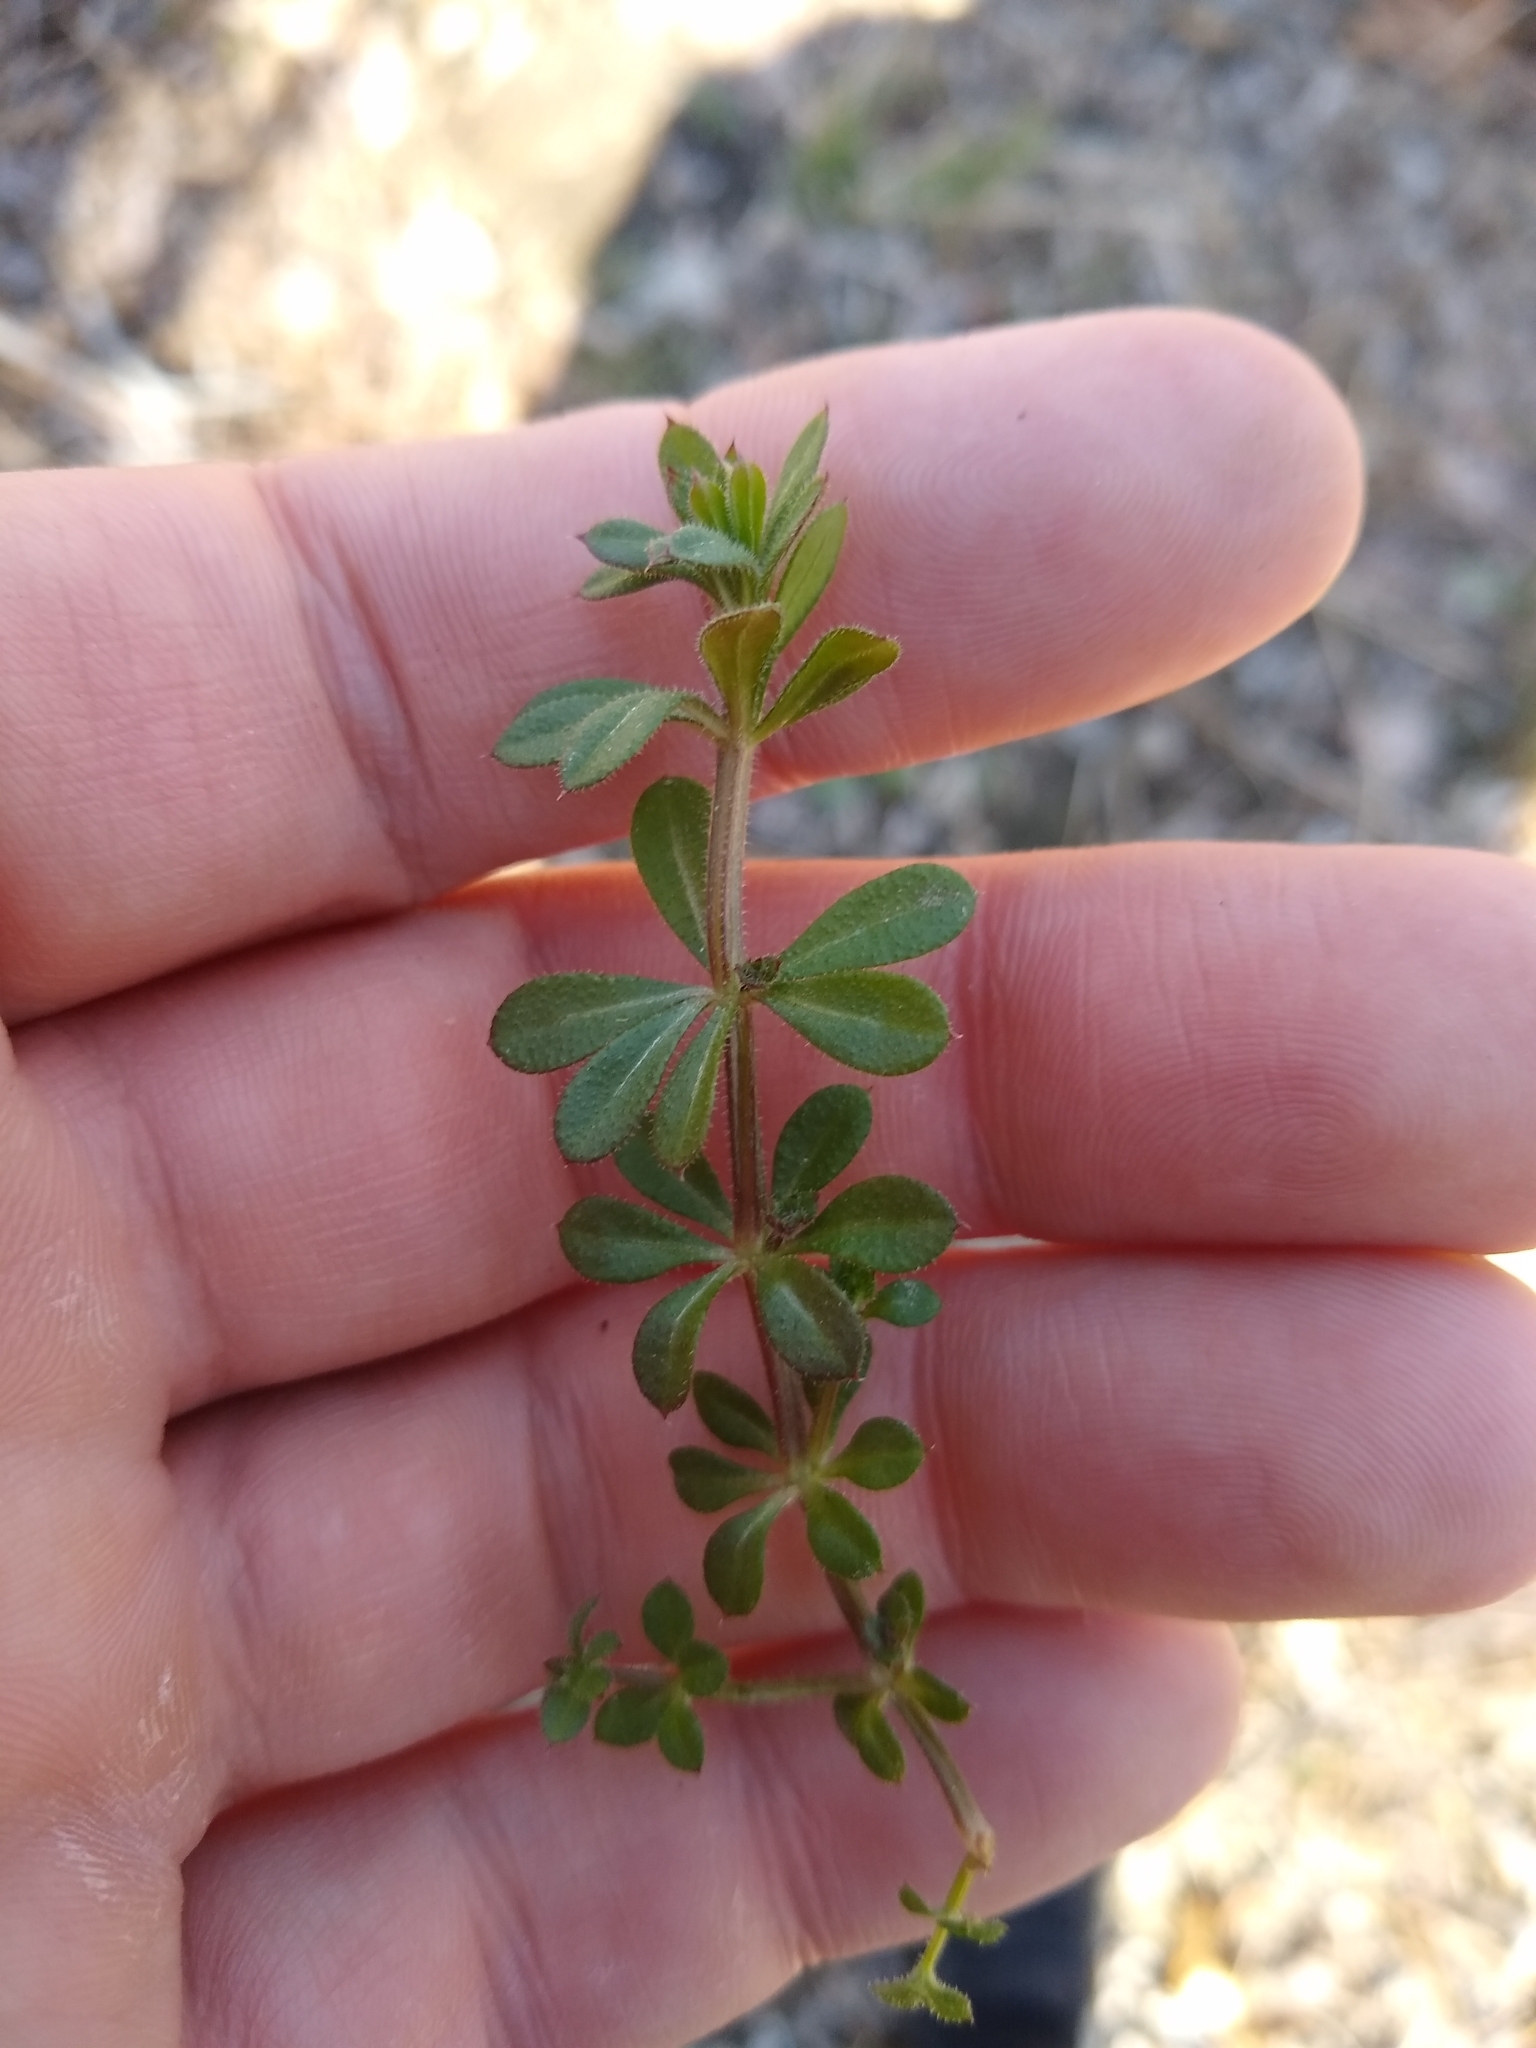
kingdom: Plantae
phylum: Tracheophyta
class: Magnoliopsida
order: Gentianales
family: Rubiaceae
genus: Galium
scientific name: Galium aparine
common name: Cleavers
